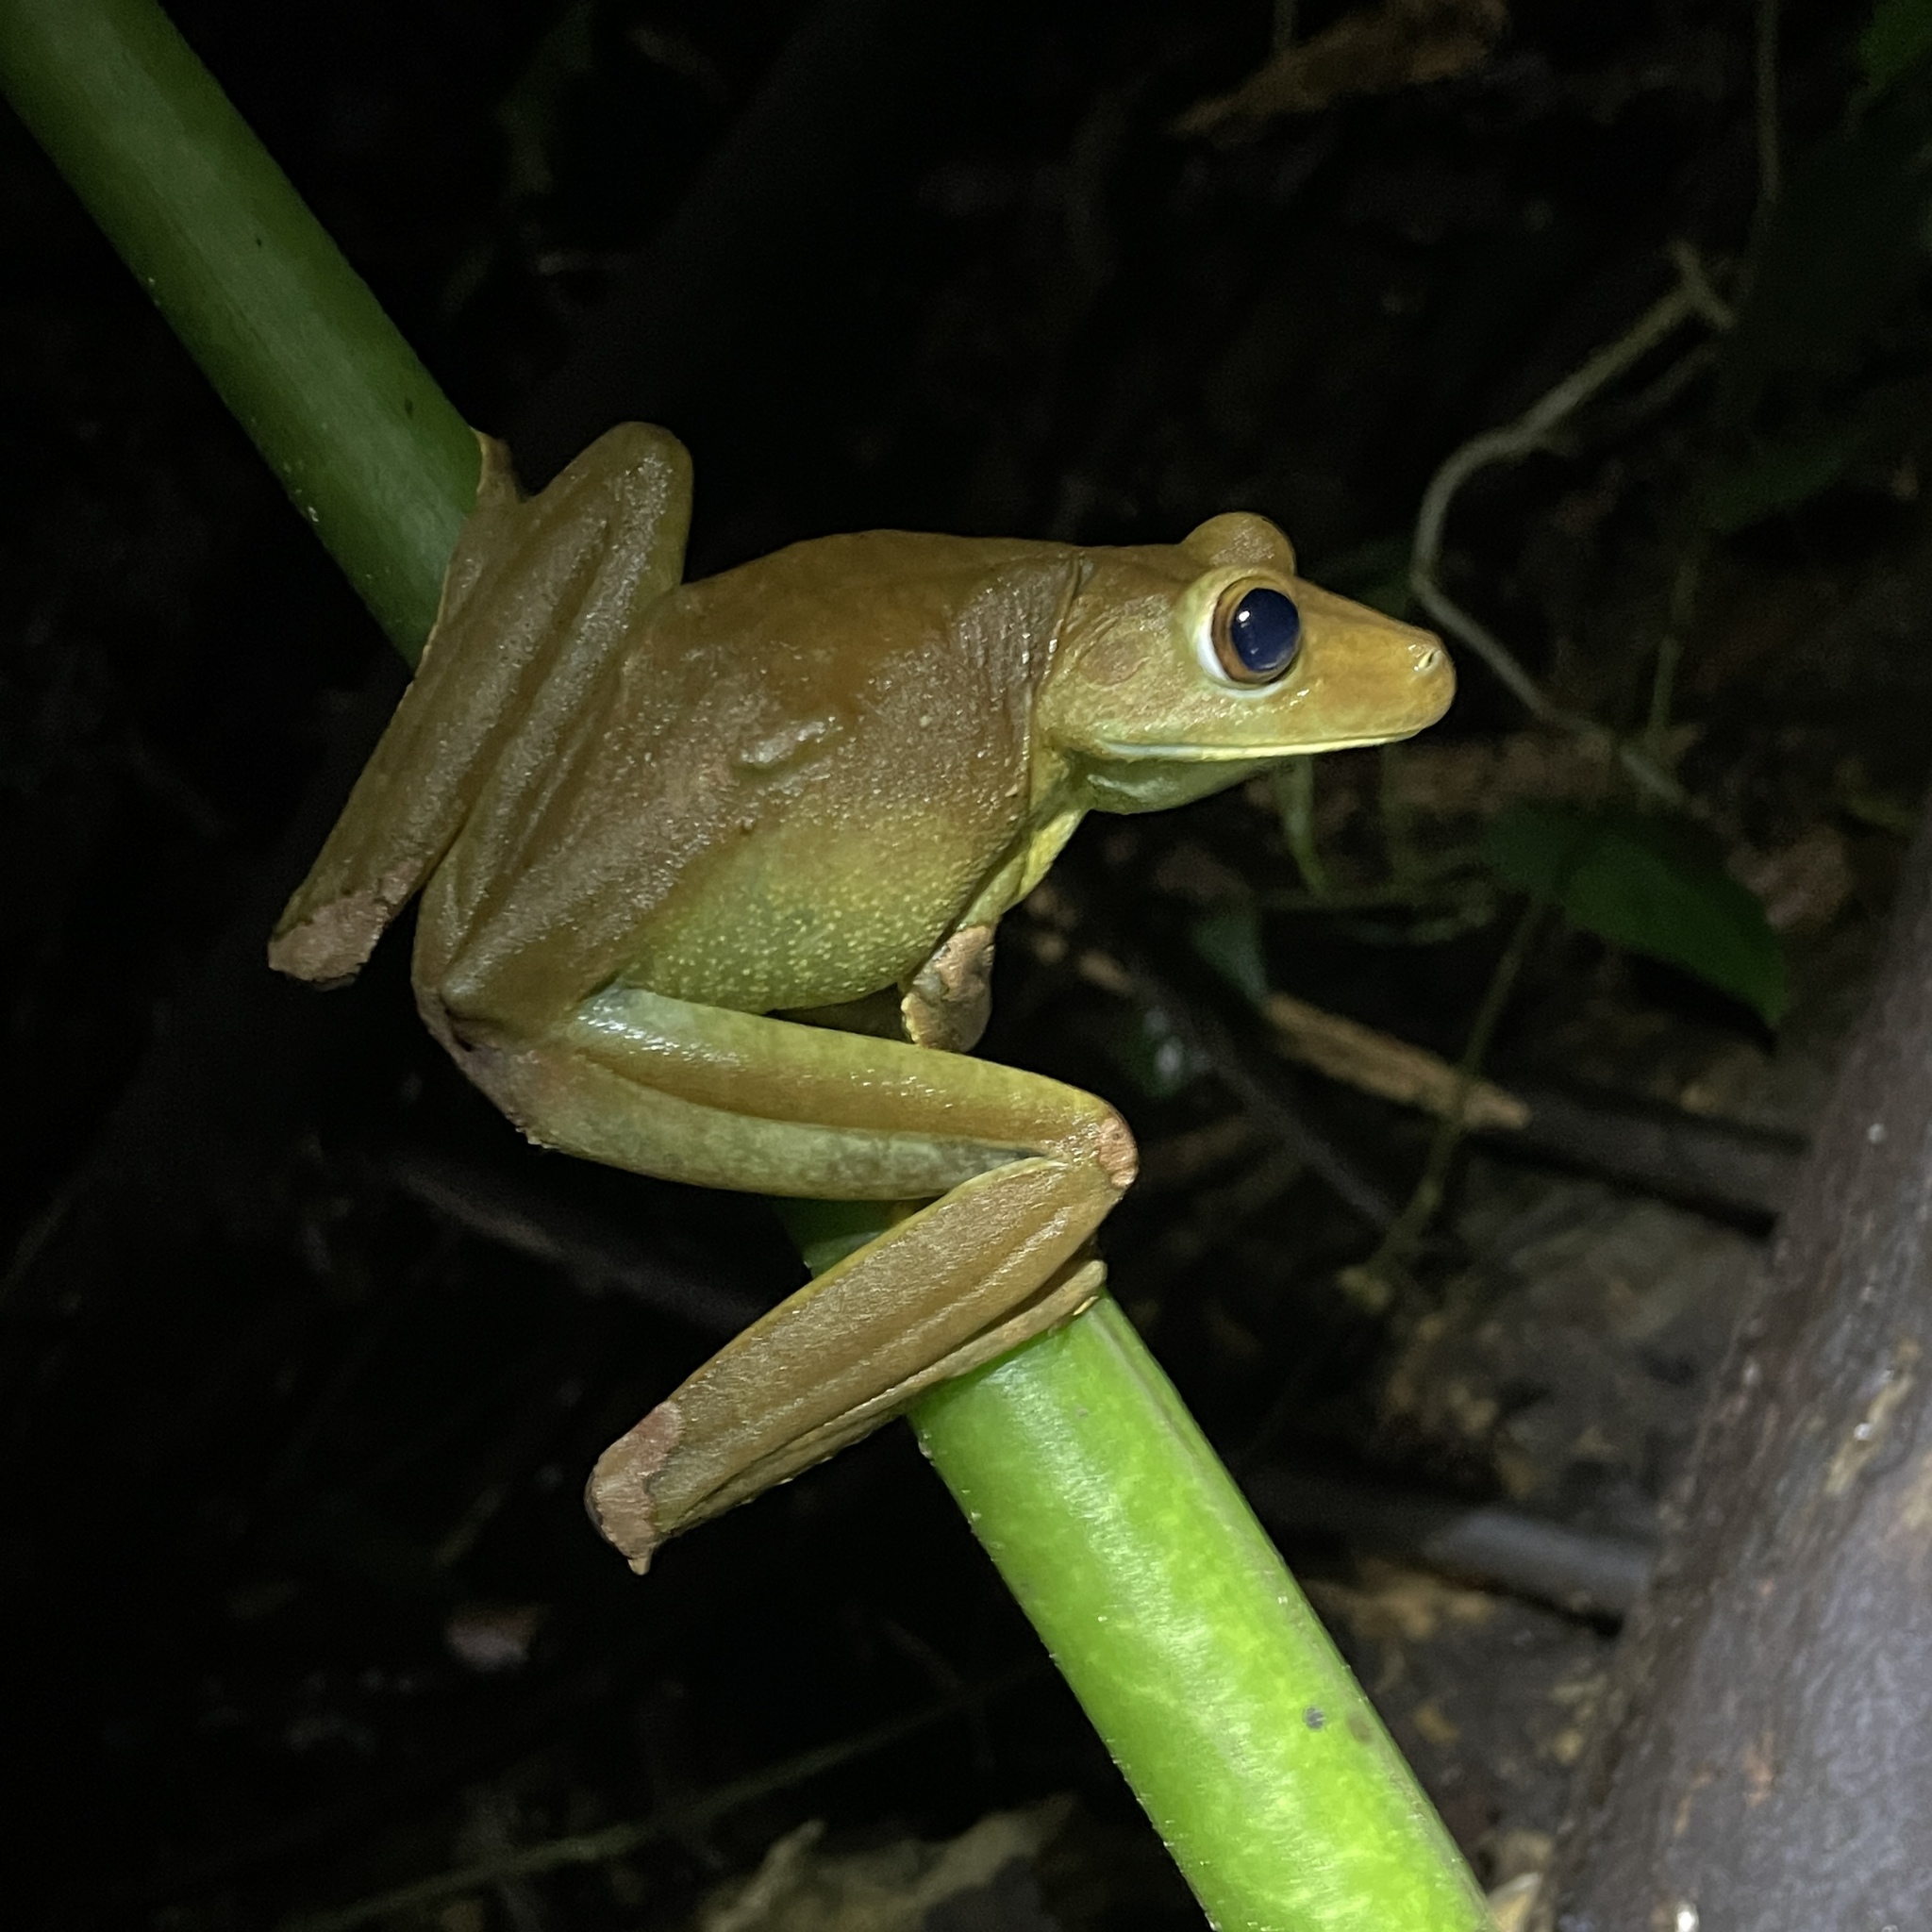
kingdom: Animalia
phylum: Chordata
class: Amphibia
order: Anura
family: Hylidae
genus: Boana
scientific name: Boana boans
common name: Giant gladiator treefrog
